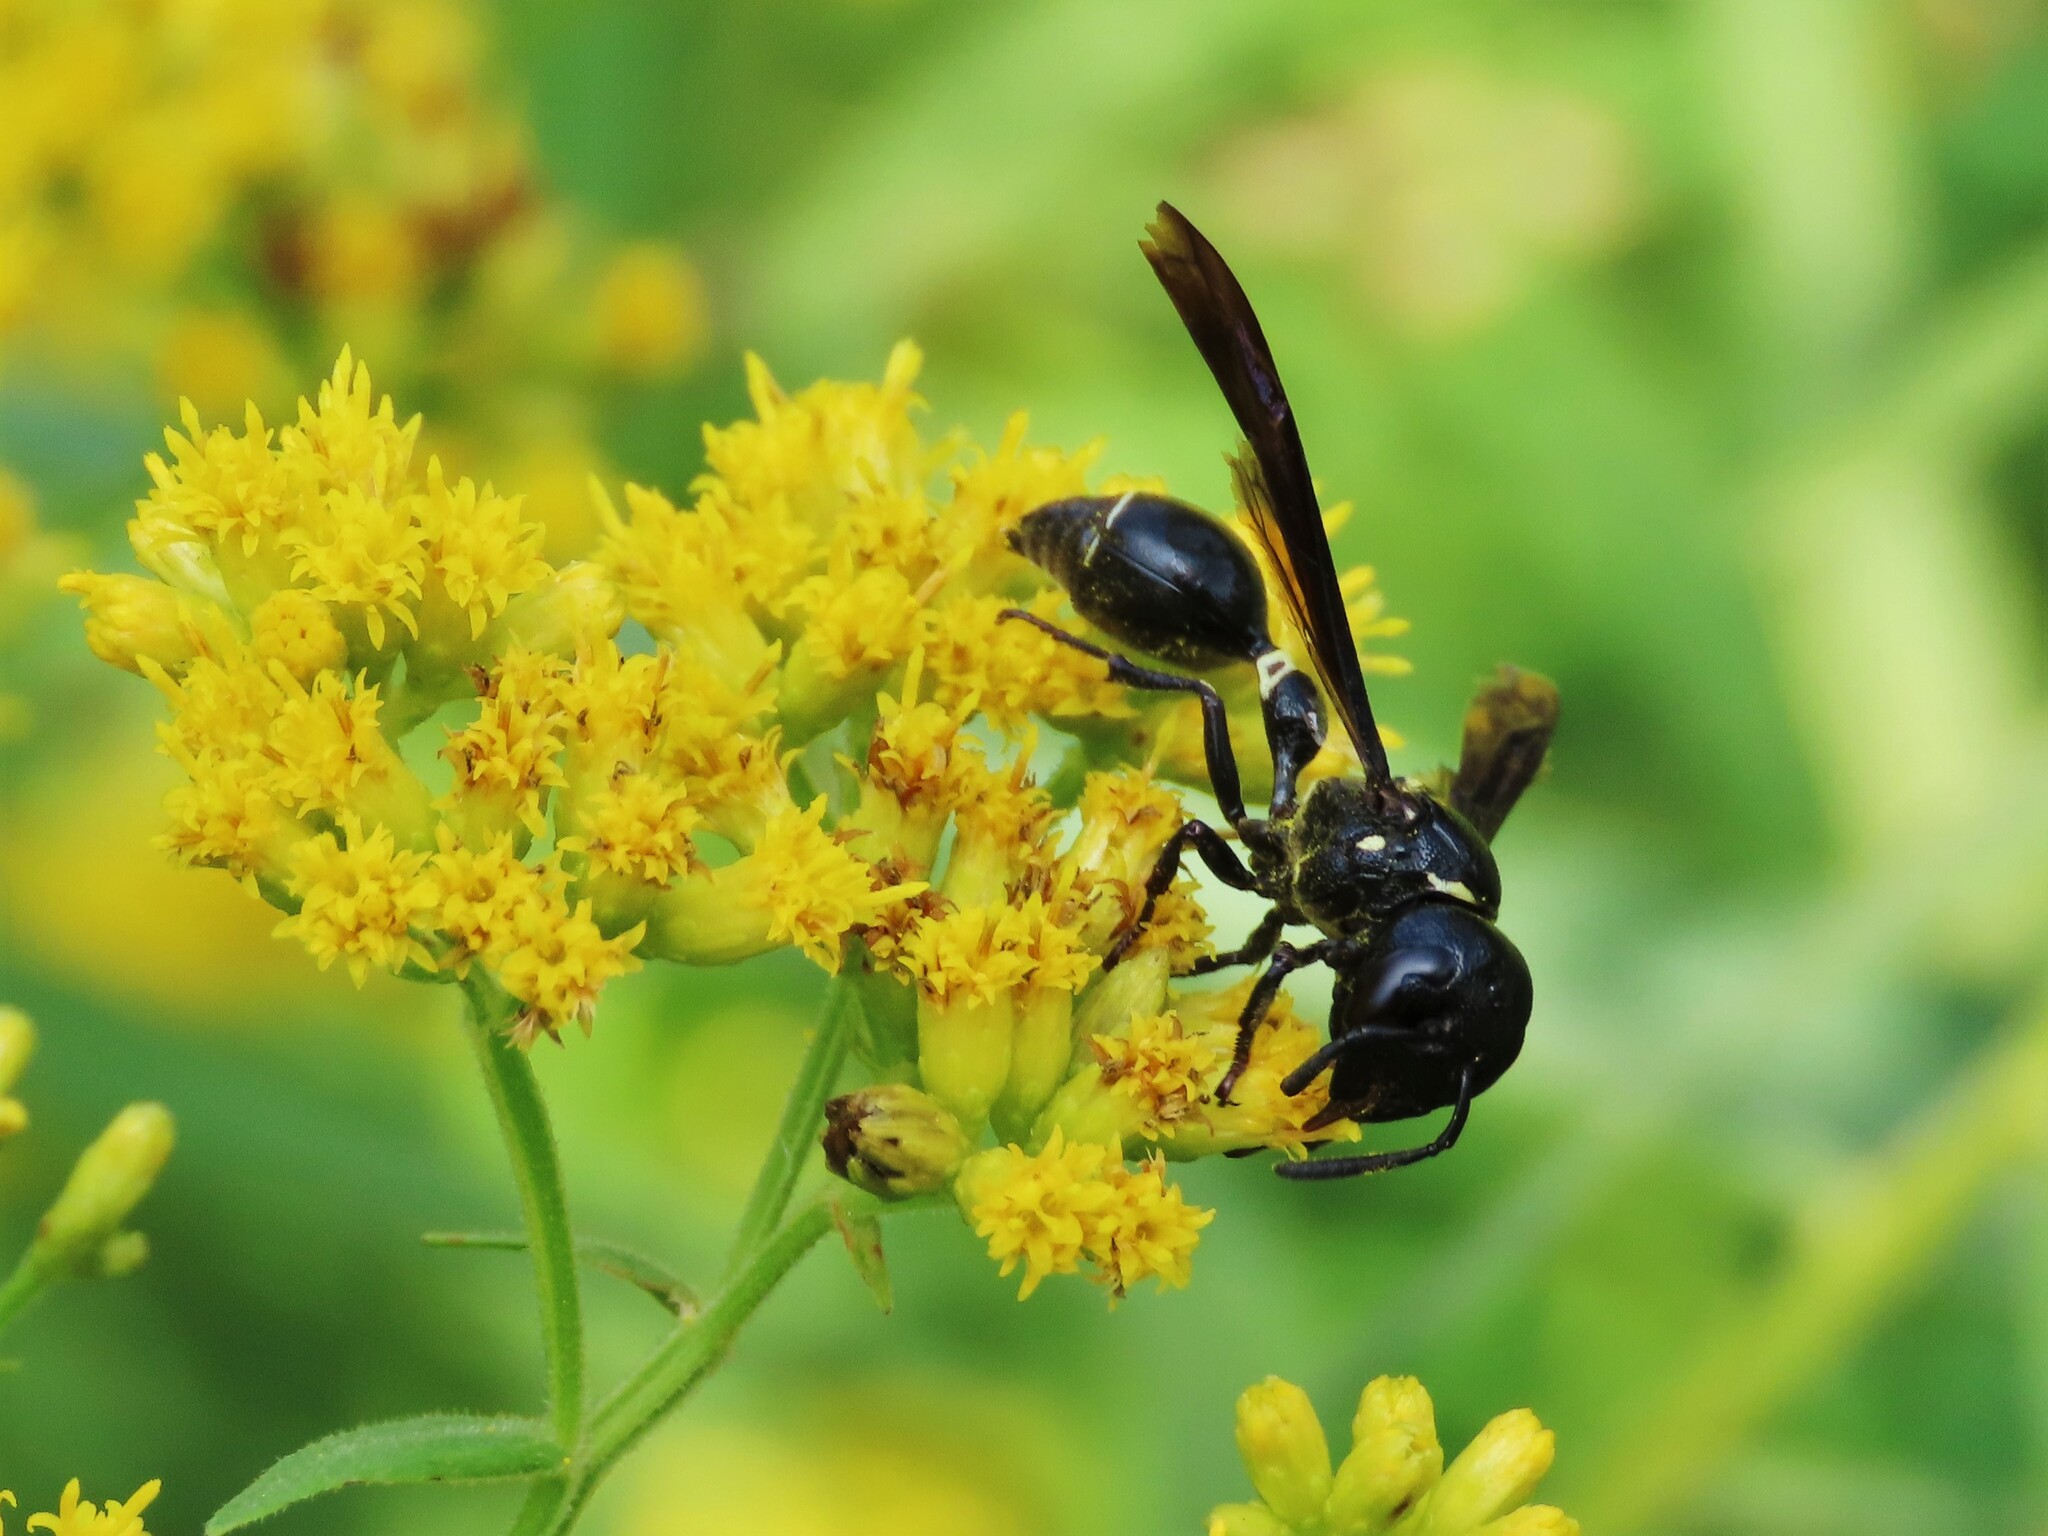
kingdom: Animalia
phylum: Arthropoda
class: Insecta
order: Hymenoptera
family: Eumenidae
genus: Zethus
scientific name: Zethus spinipes
